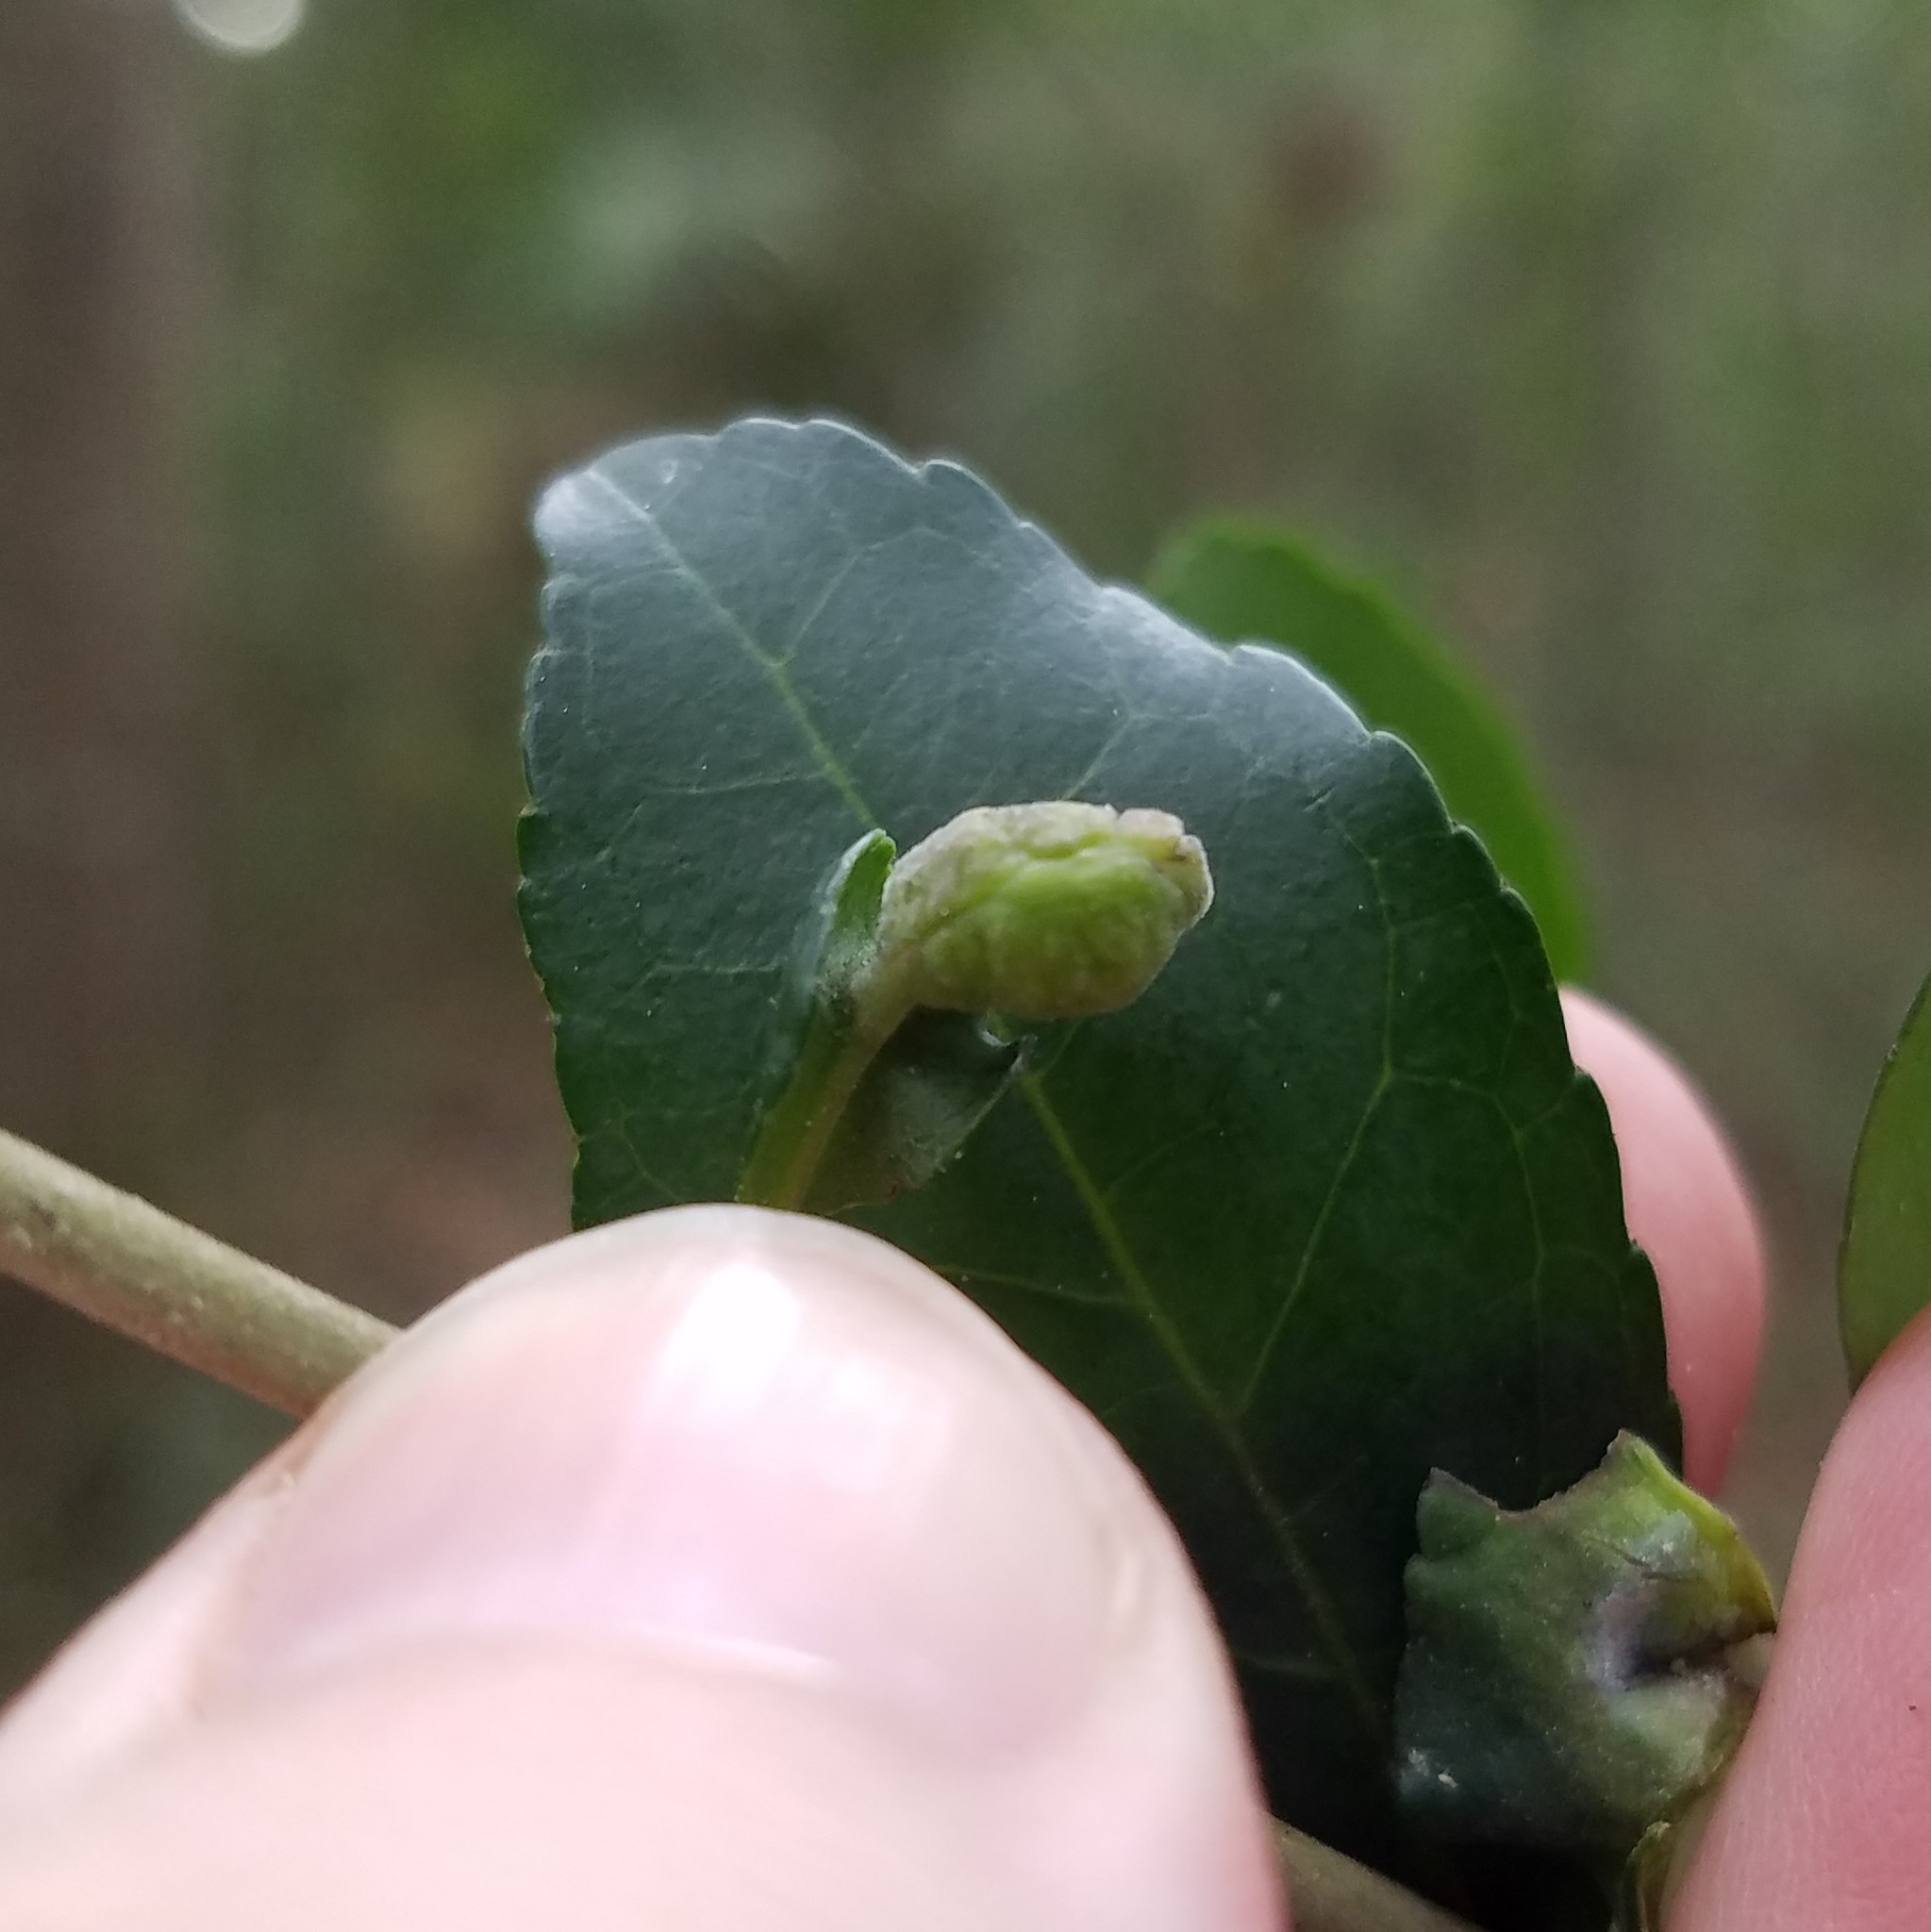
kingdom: Animalia
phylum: Arthropoda
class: Insecta
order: Hemiptera
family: Aphalaridae
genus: Gyropsylla
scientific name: Gyropsylla ilecis
